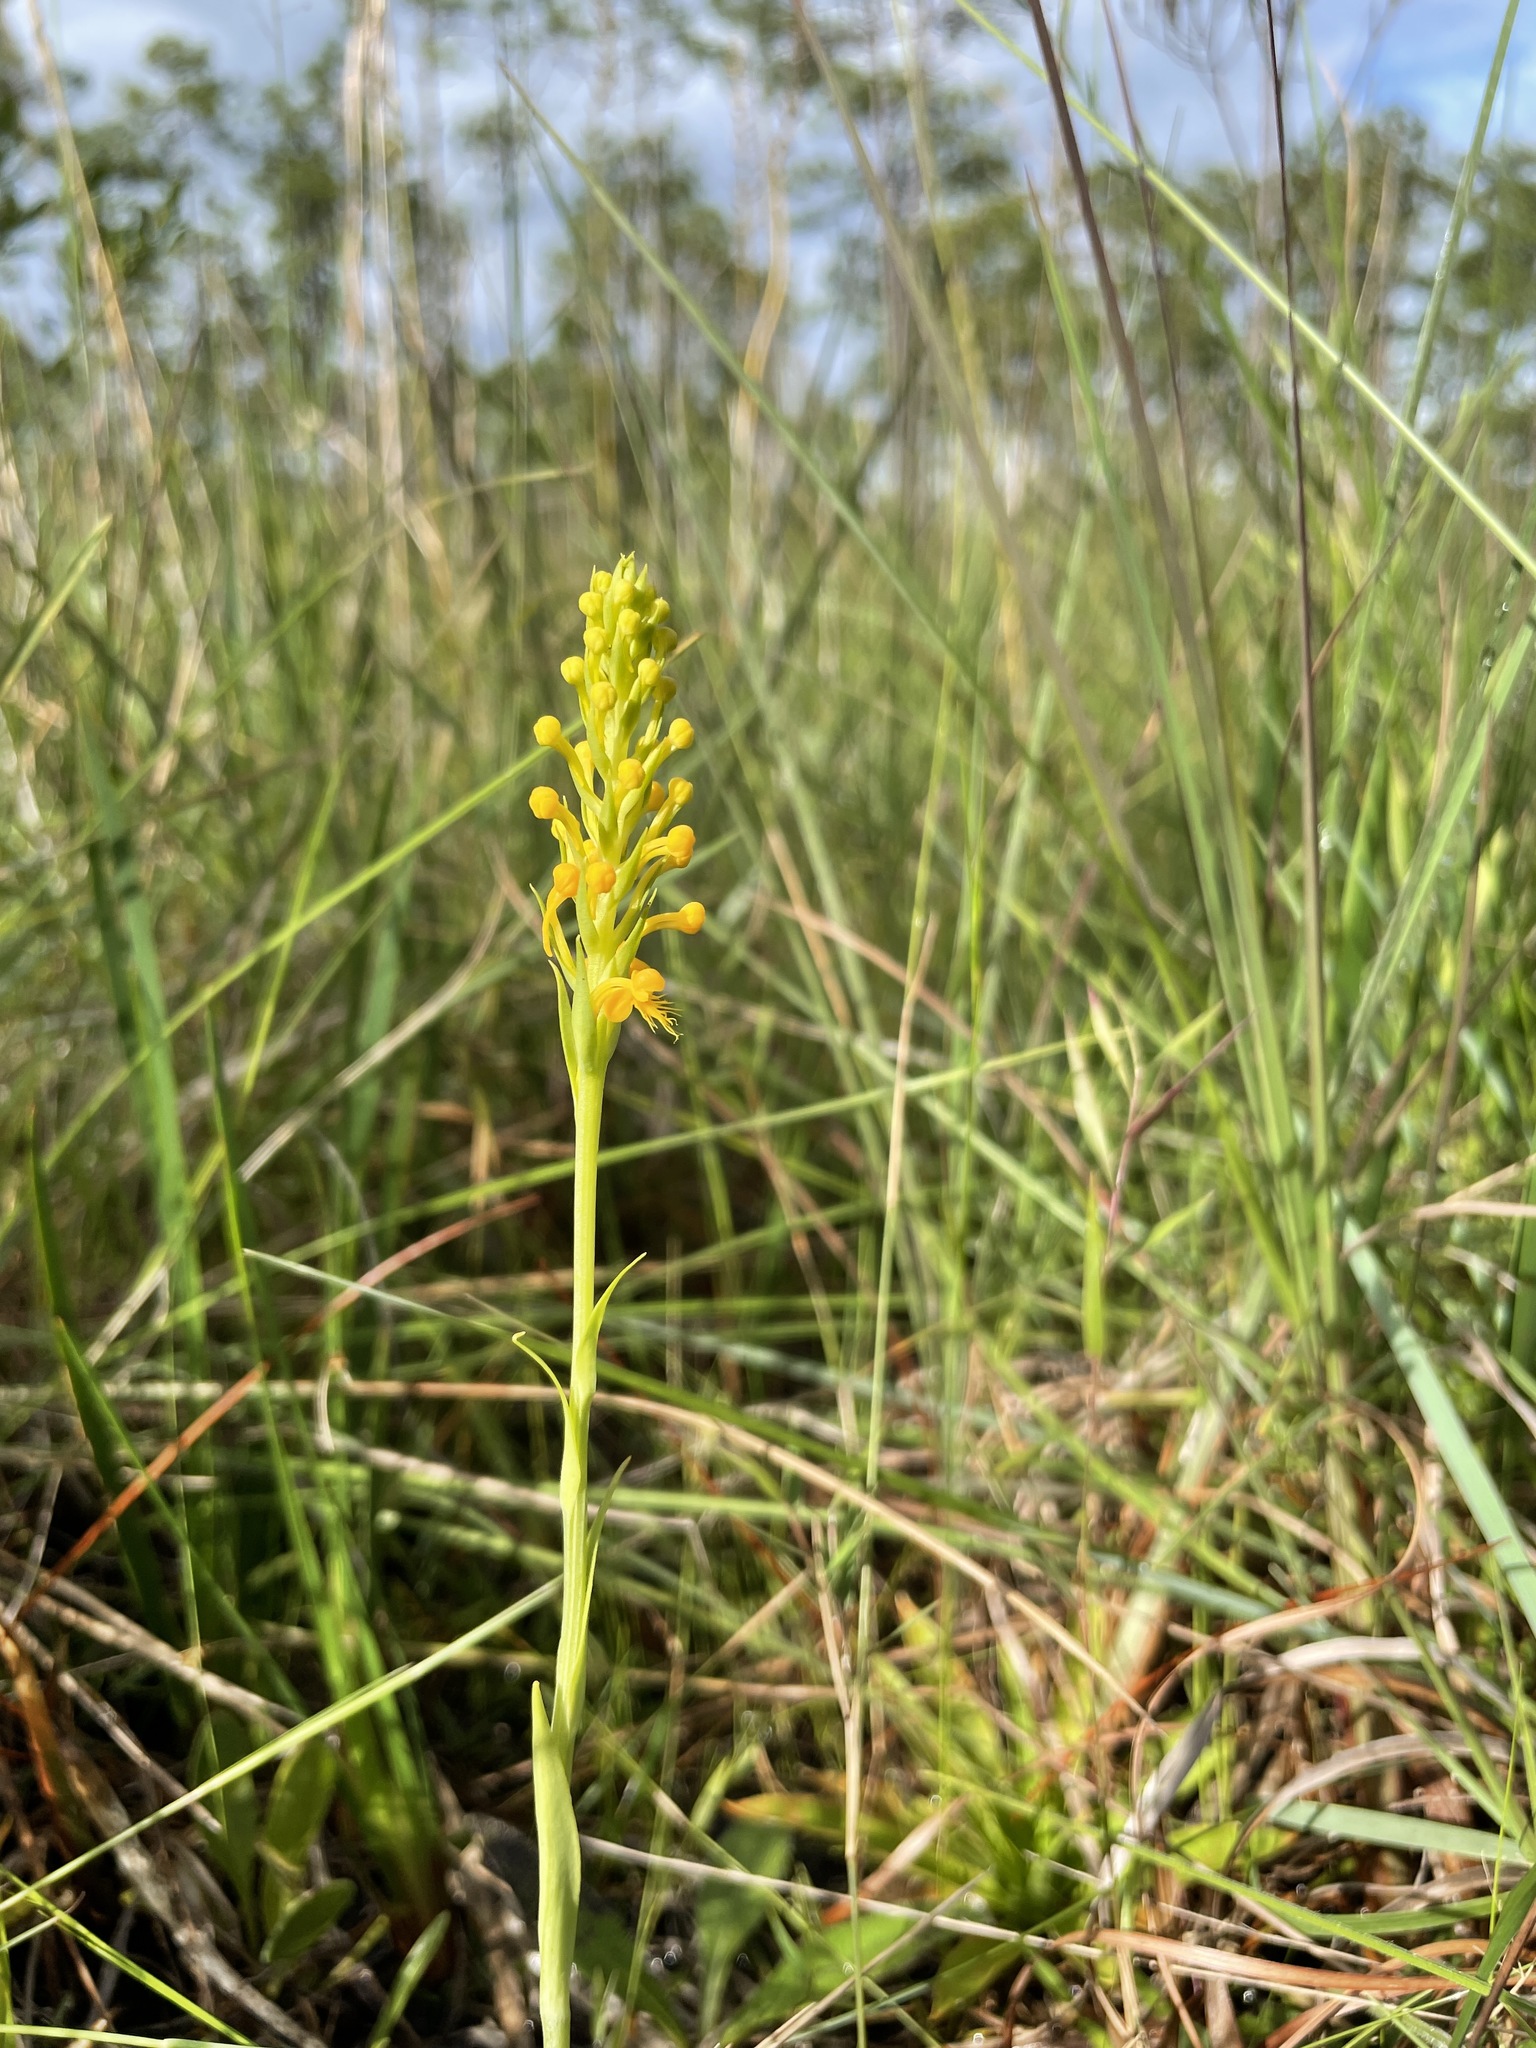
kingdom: Plantae
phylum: Tracheophyta
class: Liliopsida
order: Asparagales
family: Orchidaceae
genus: Platanthera
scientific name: Platanthera cristata
